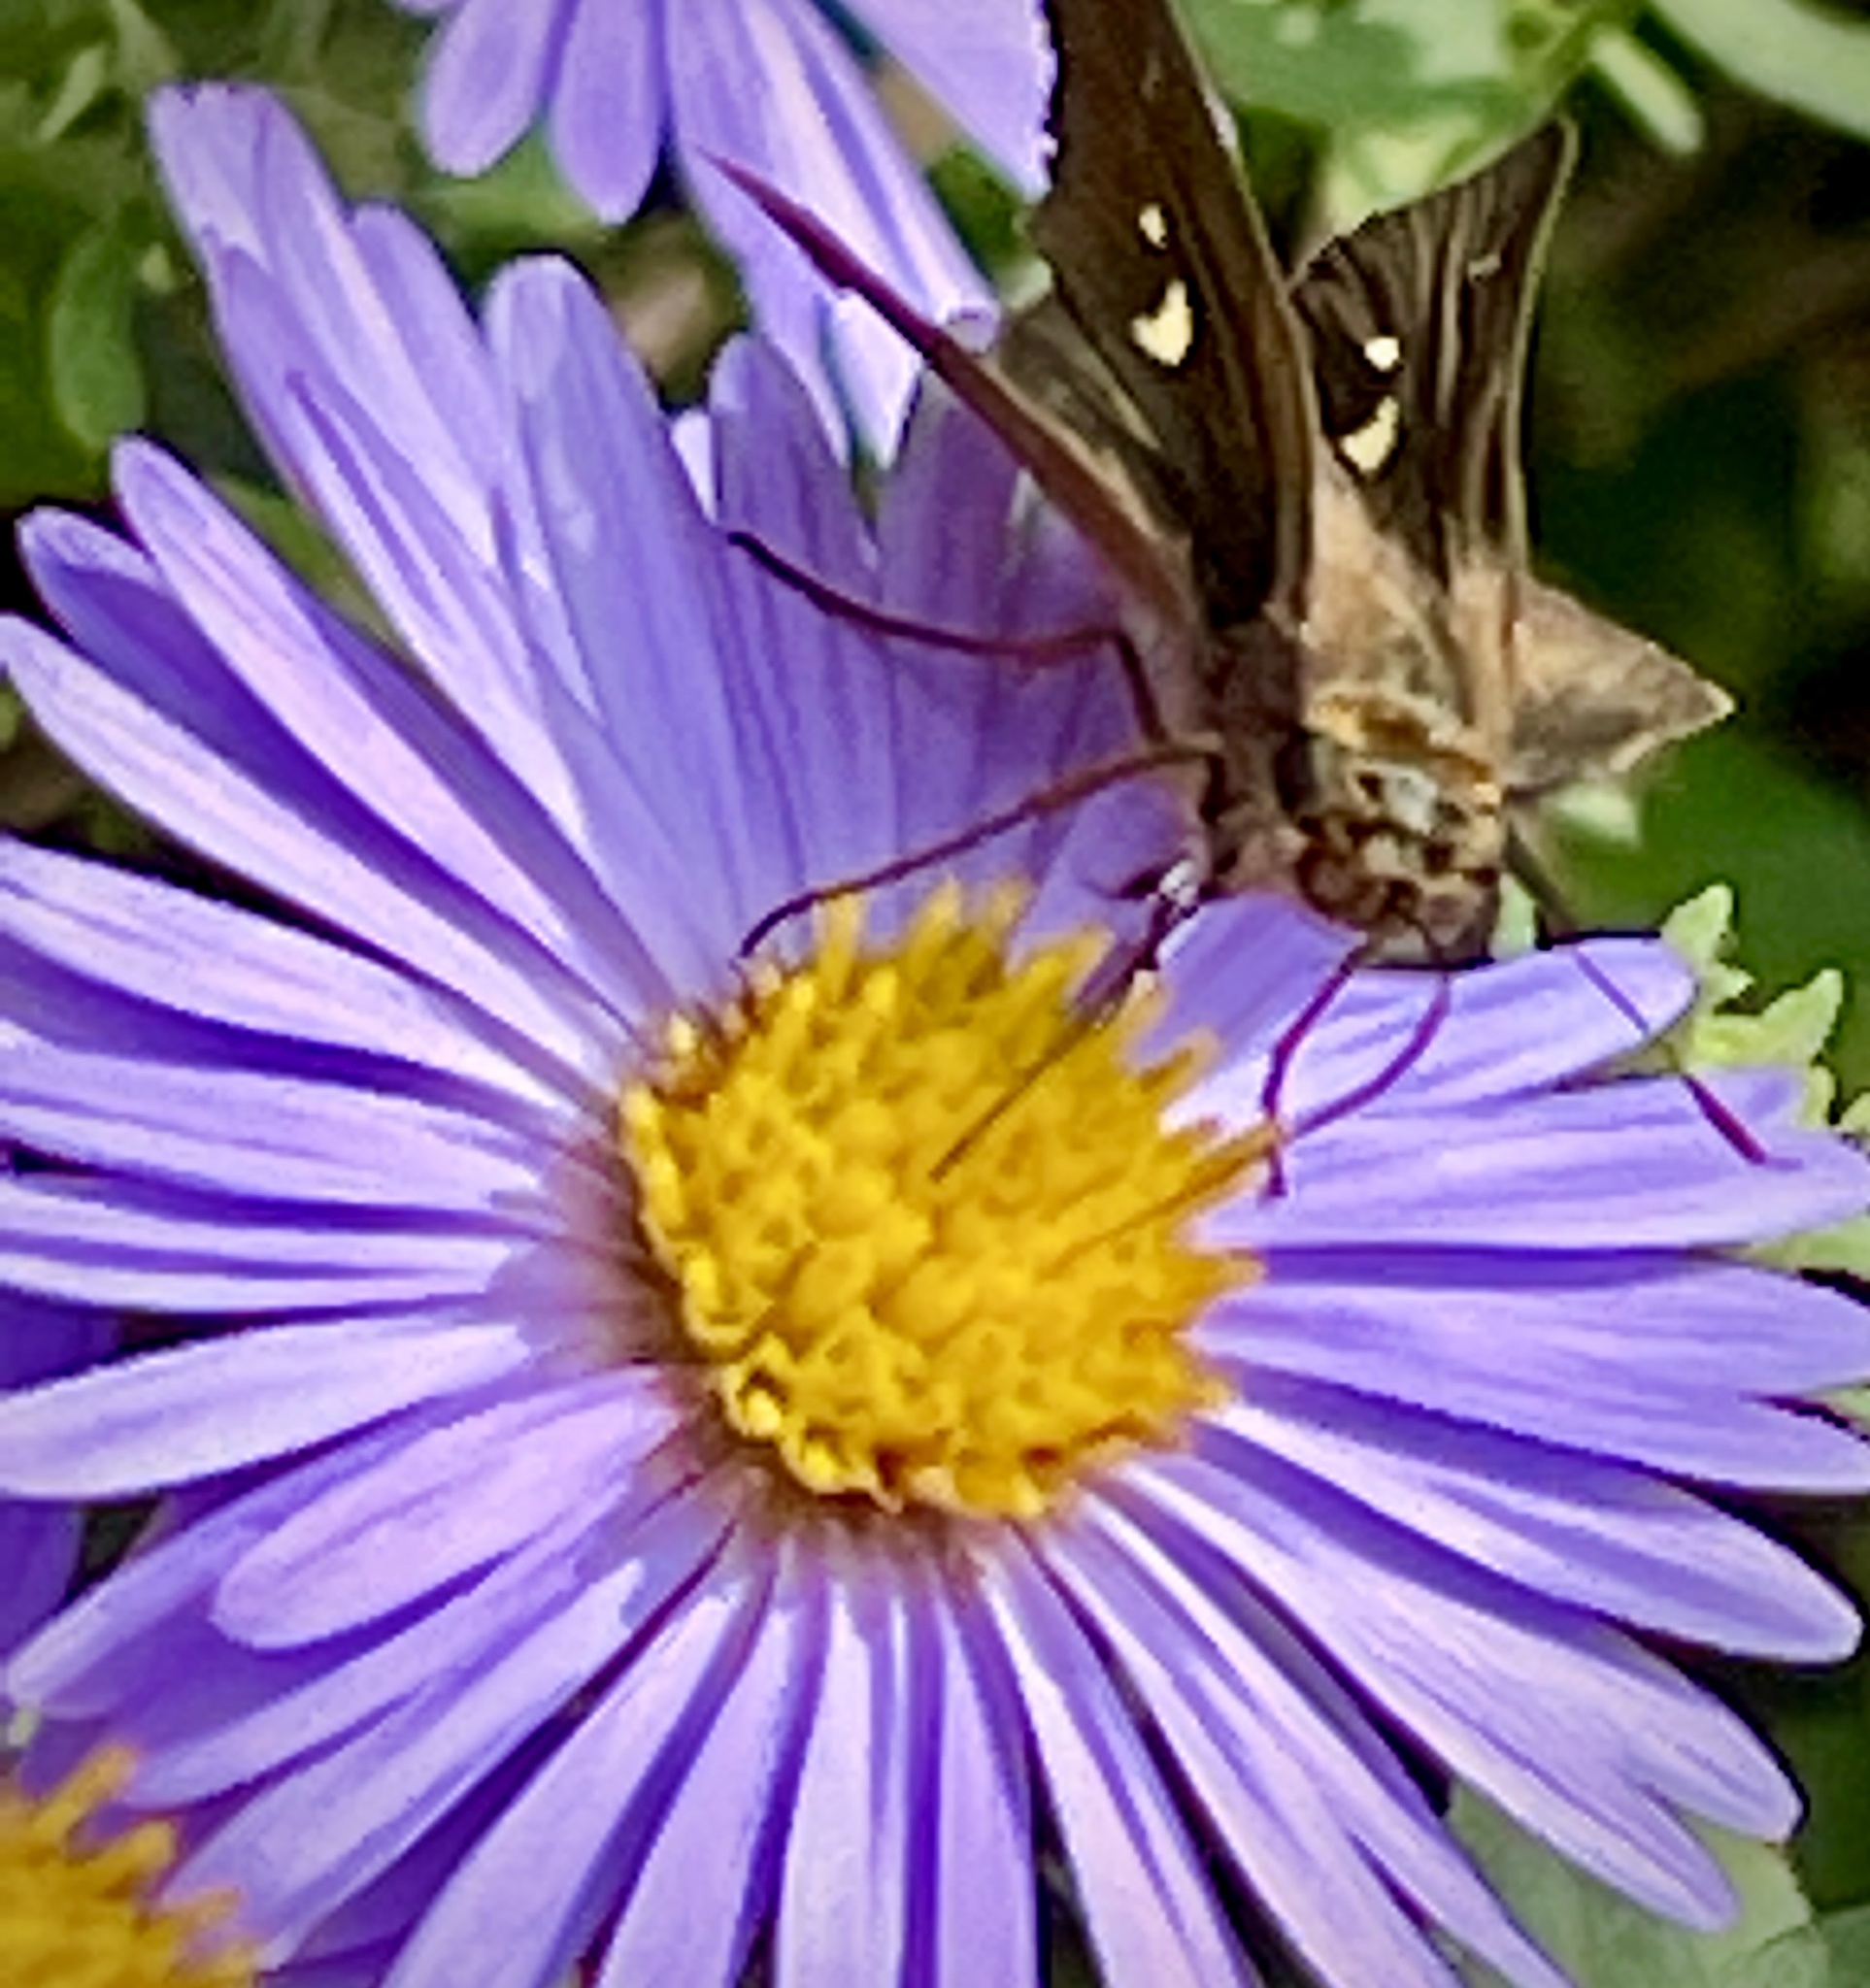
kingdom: Animalia
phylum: Arthropoda
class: Insecta
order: Lepidoptera
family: Hesperiidae
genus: Panoquina
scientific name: Panoquina ocola
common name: Ocola skipper
